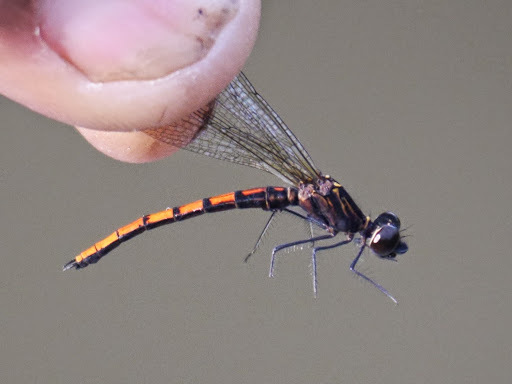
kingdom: Animalia
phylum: Arthropoda
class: Insecta
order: Odonata
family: Chlorocyphidae
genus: Chlorocypha
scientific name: Chlorocypha pyriformosa
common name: River jewel
